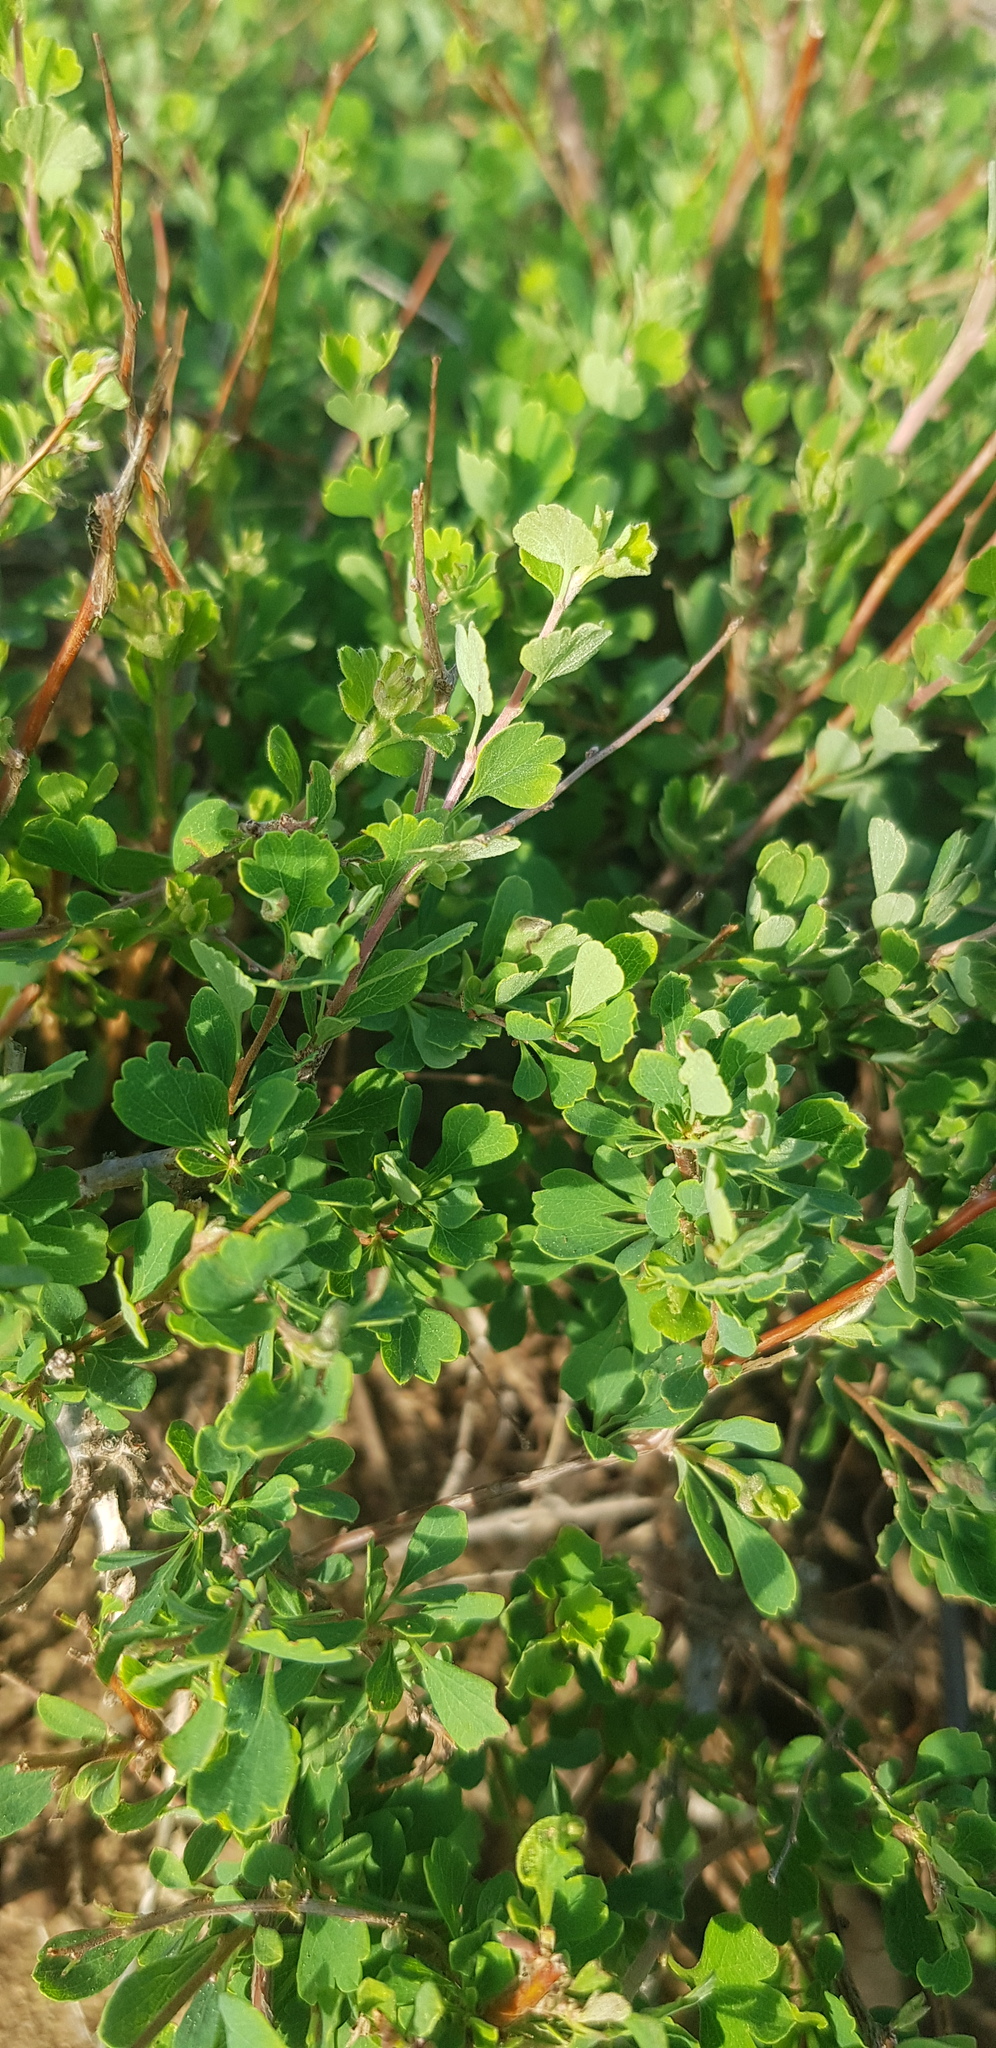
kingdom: Plantae
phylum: Tracheophyta
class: Magnoliopsida
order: Rosales
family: Rosaceae
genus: Spiraea
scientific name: Spiraea aquilegifolia
